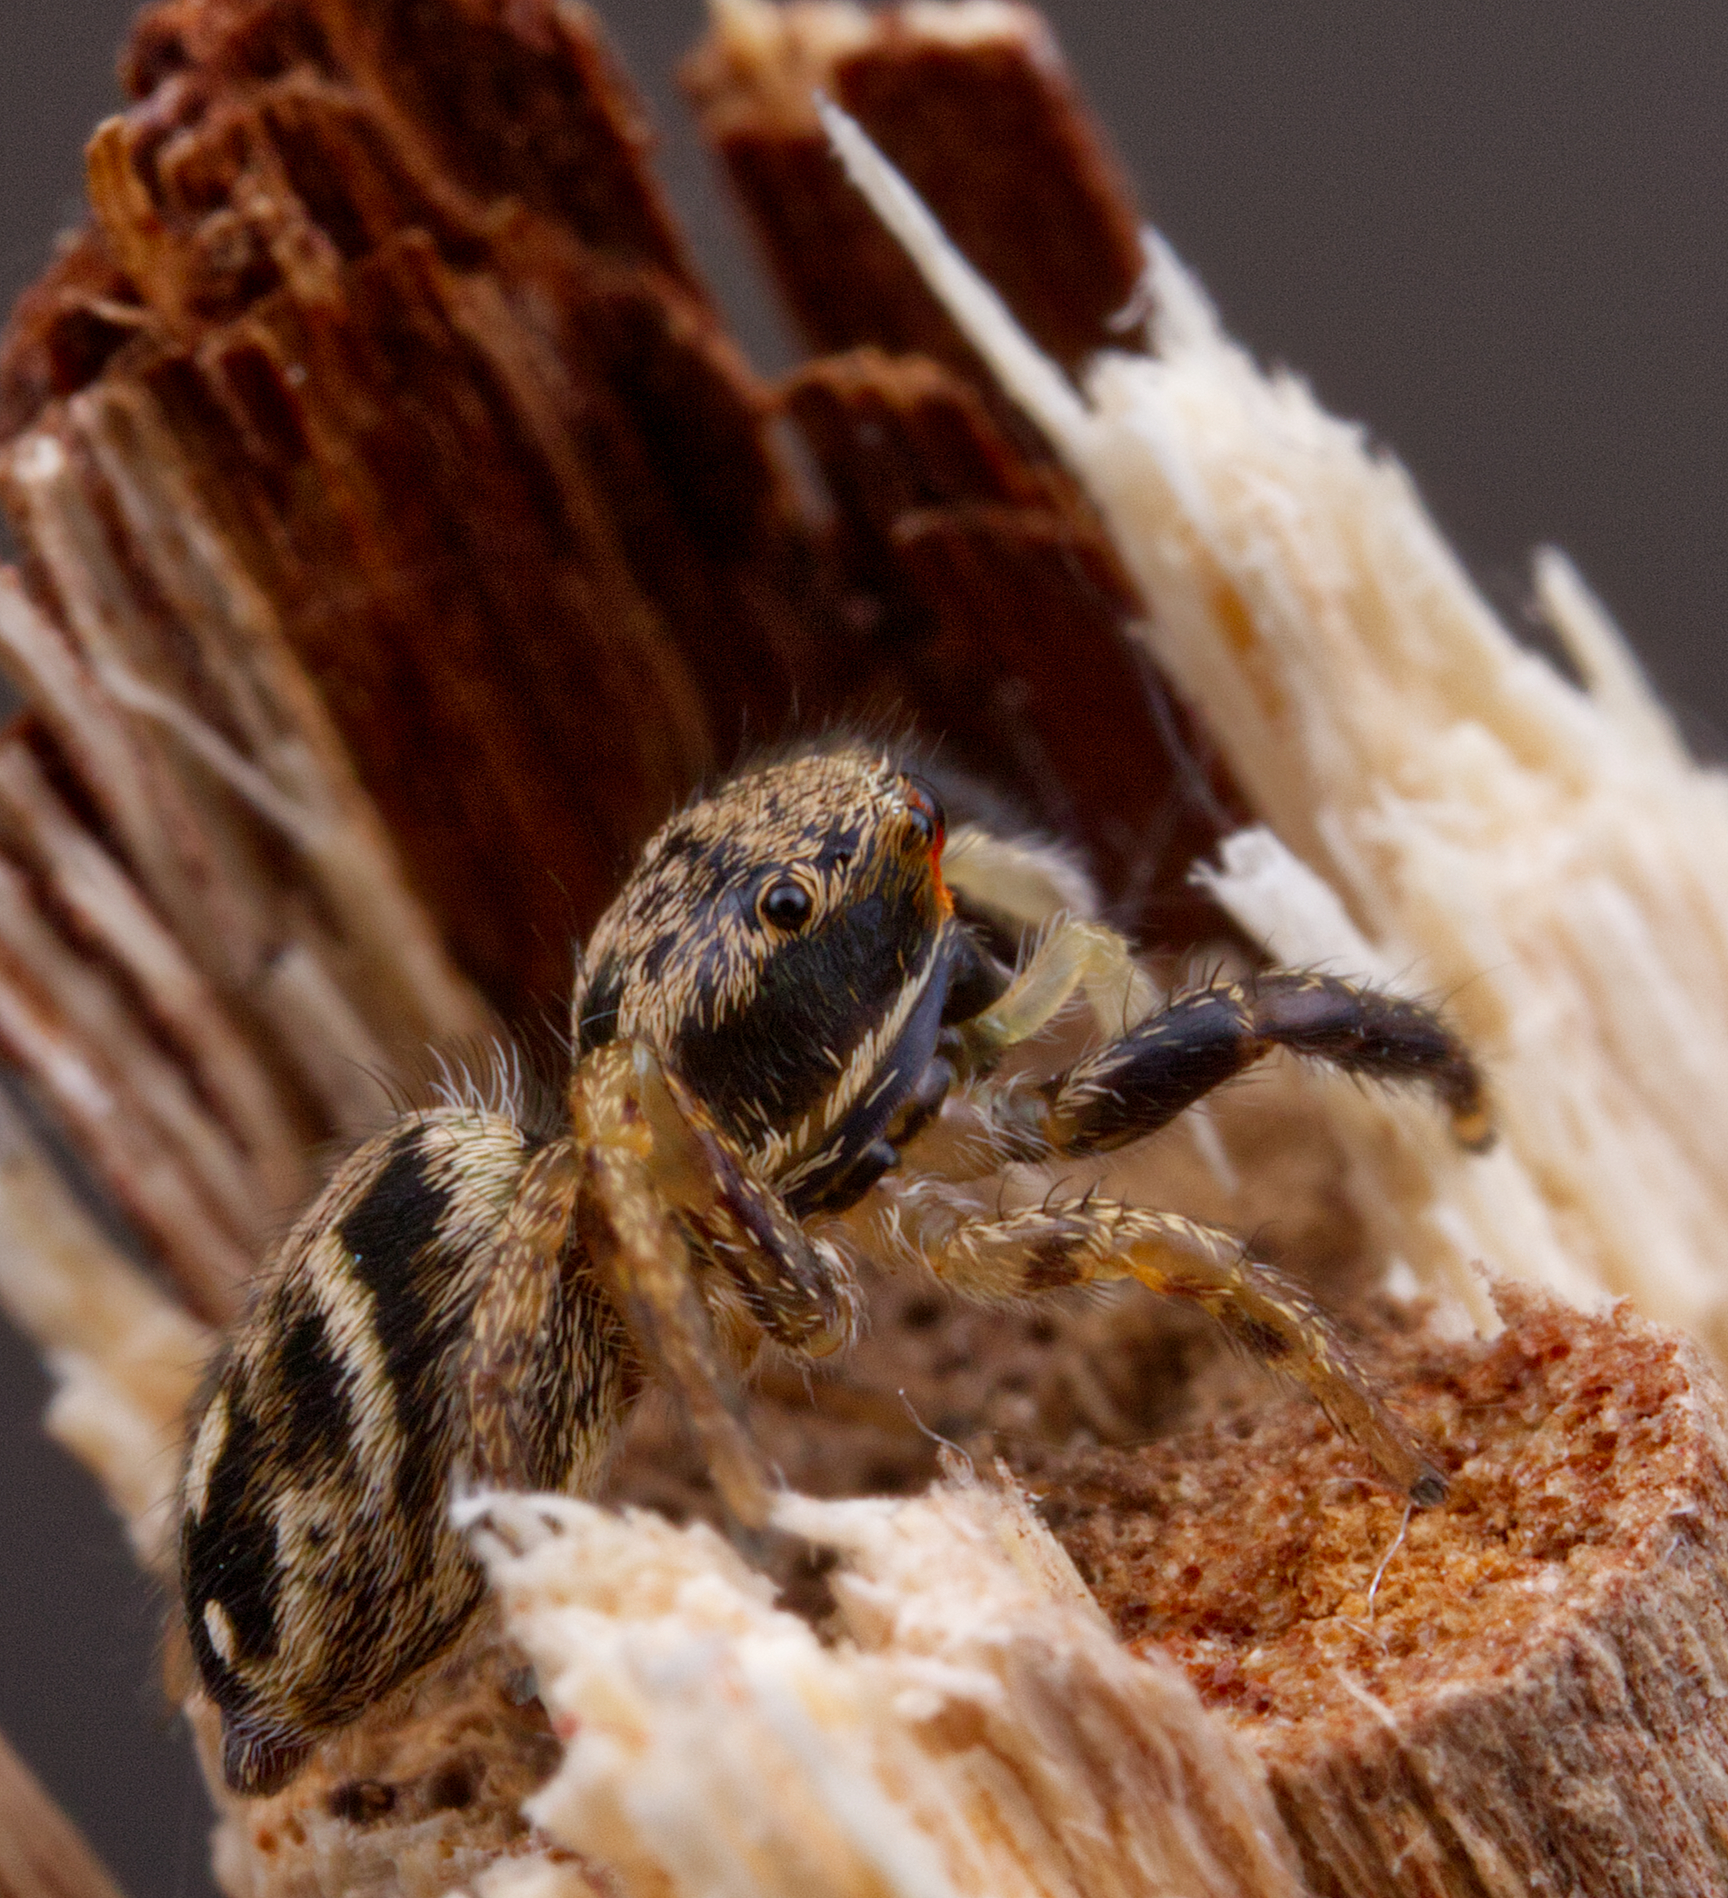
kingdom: Animalia
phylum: Arthropoda
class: Arachnida
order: Araneae
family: Salticidae
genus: Habronattus
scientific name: Habronattus coecatus
